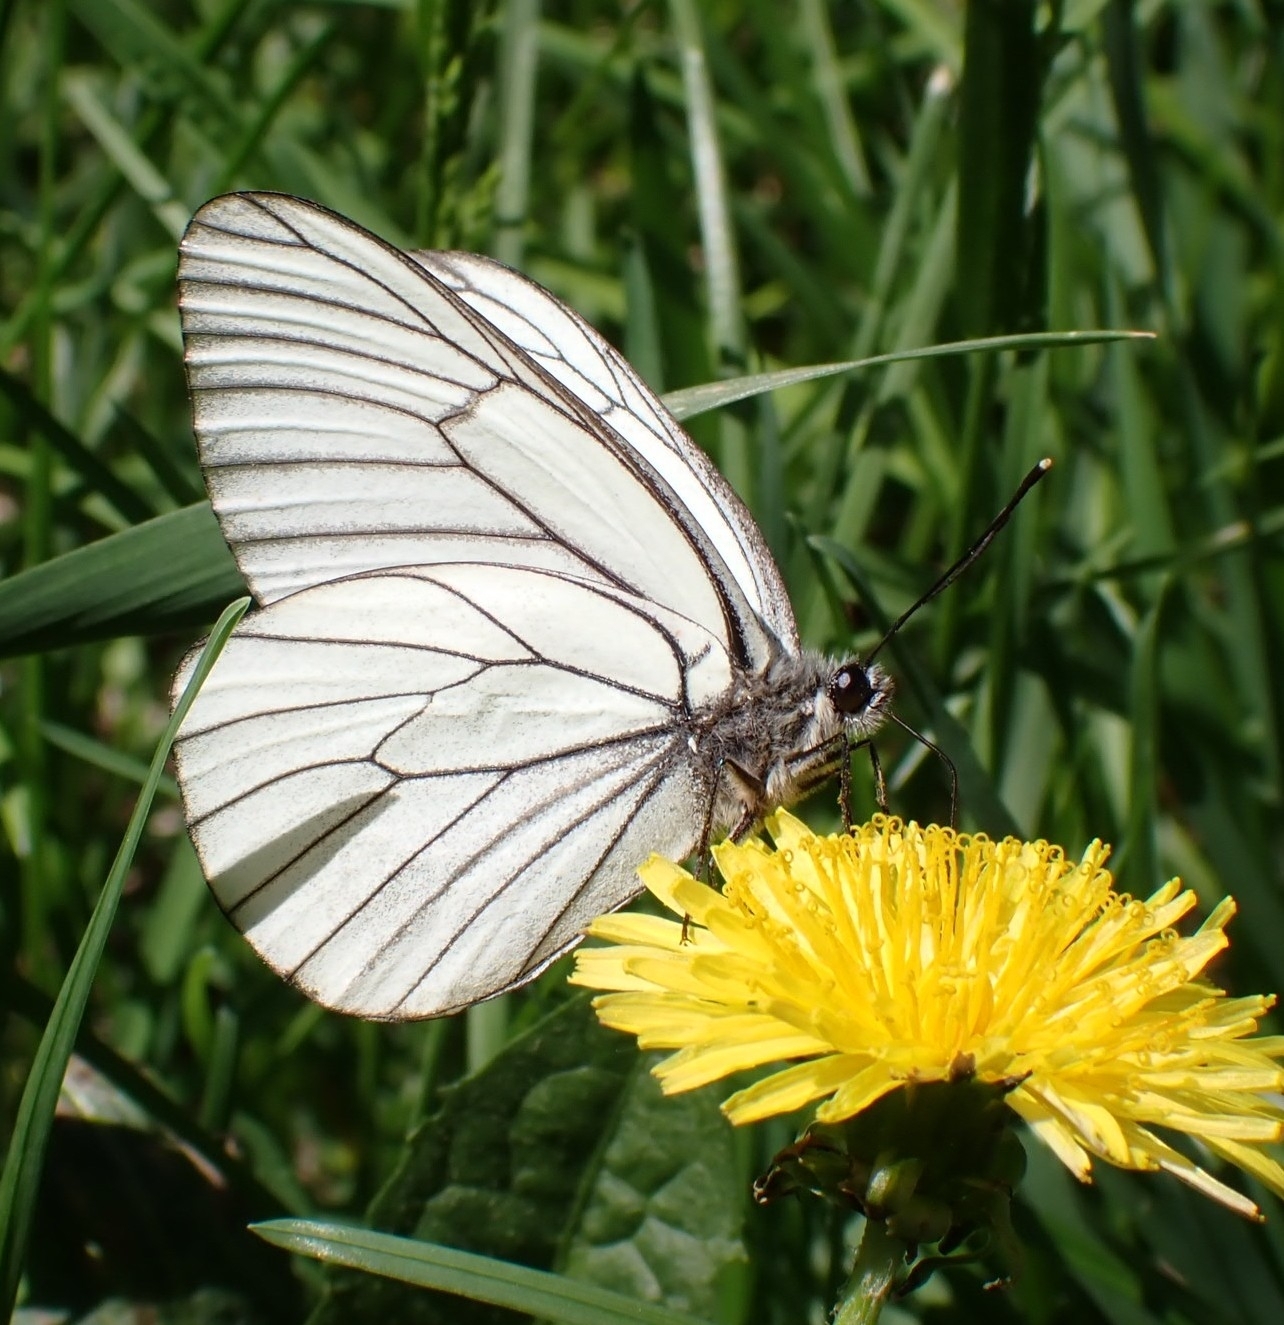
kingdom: Animalia
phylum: Arthropoda
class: Insecta
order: Lepidoptera
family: Pieridae
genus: Aporia
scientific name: Aporia crataegi
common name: Black-veined white
